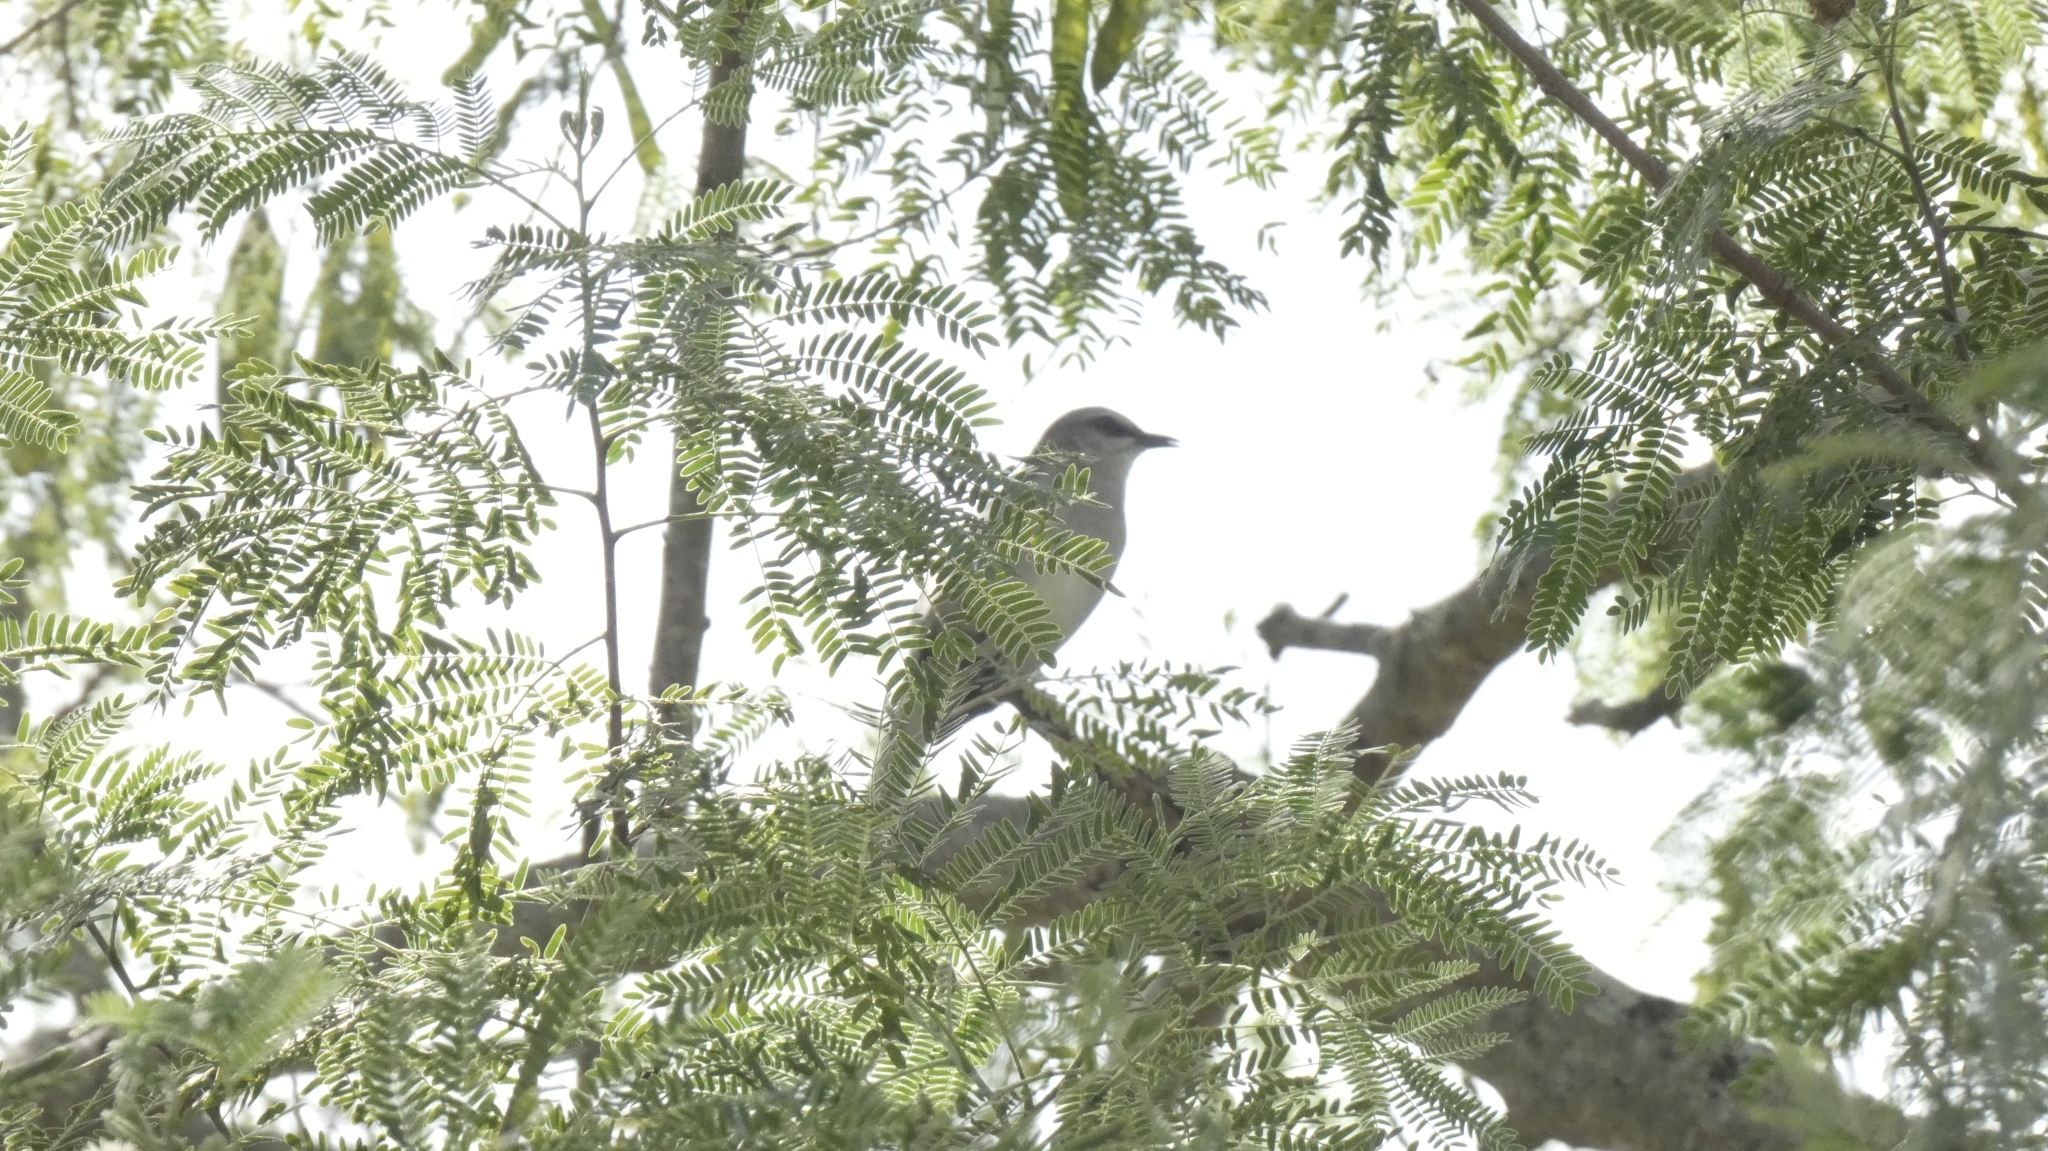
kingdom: Animalia
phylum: Chordata
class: Aves
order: Passeriformes
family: Mimidae
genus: Mimus
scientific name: Mimus gilvus
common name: Tropical mockingbird
